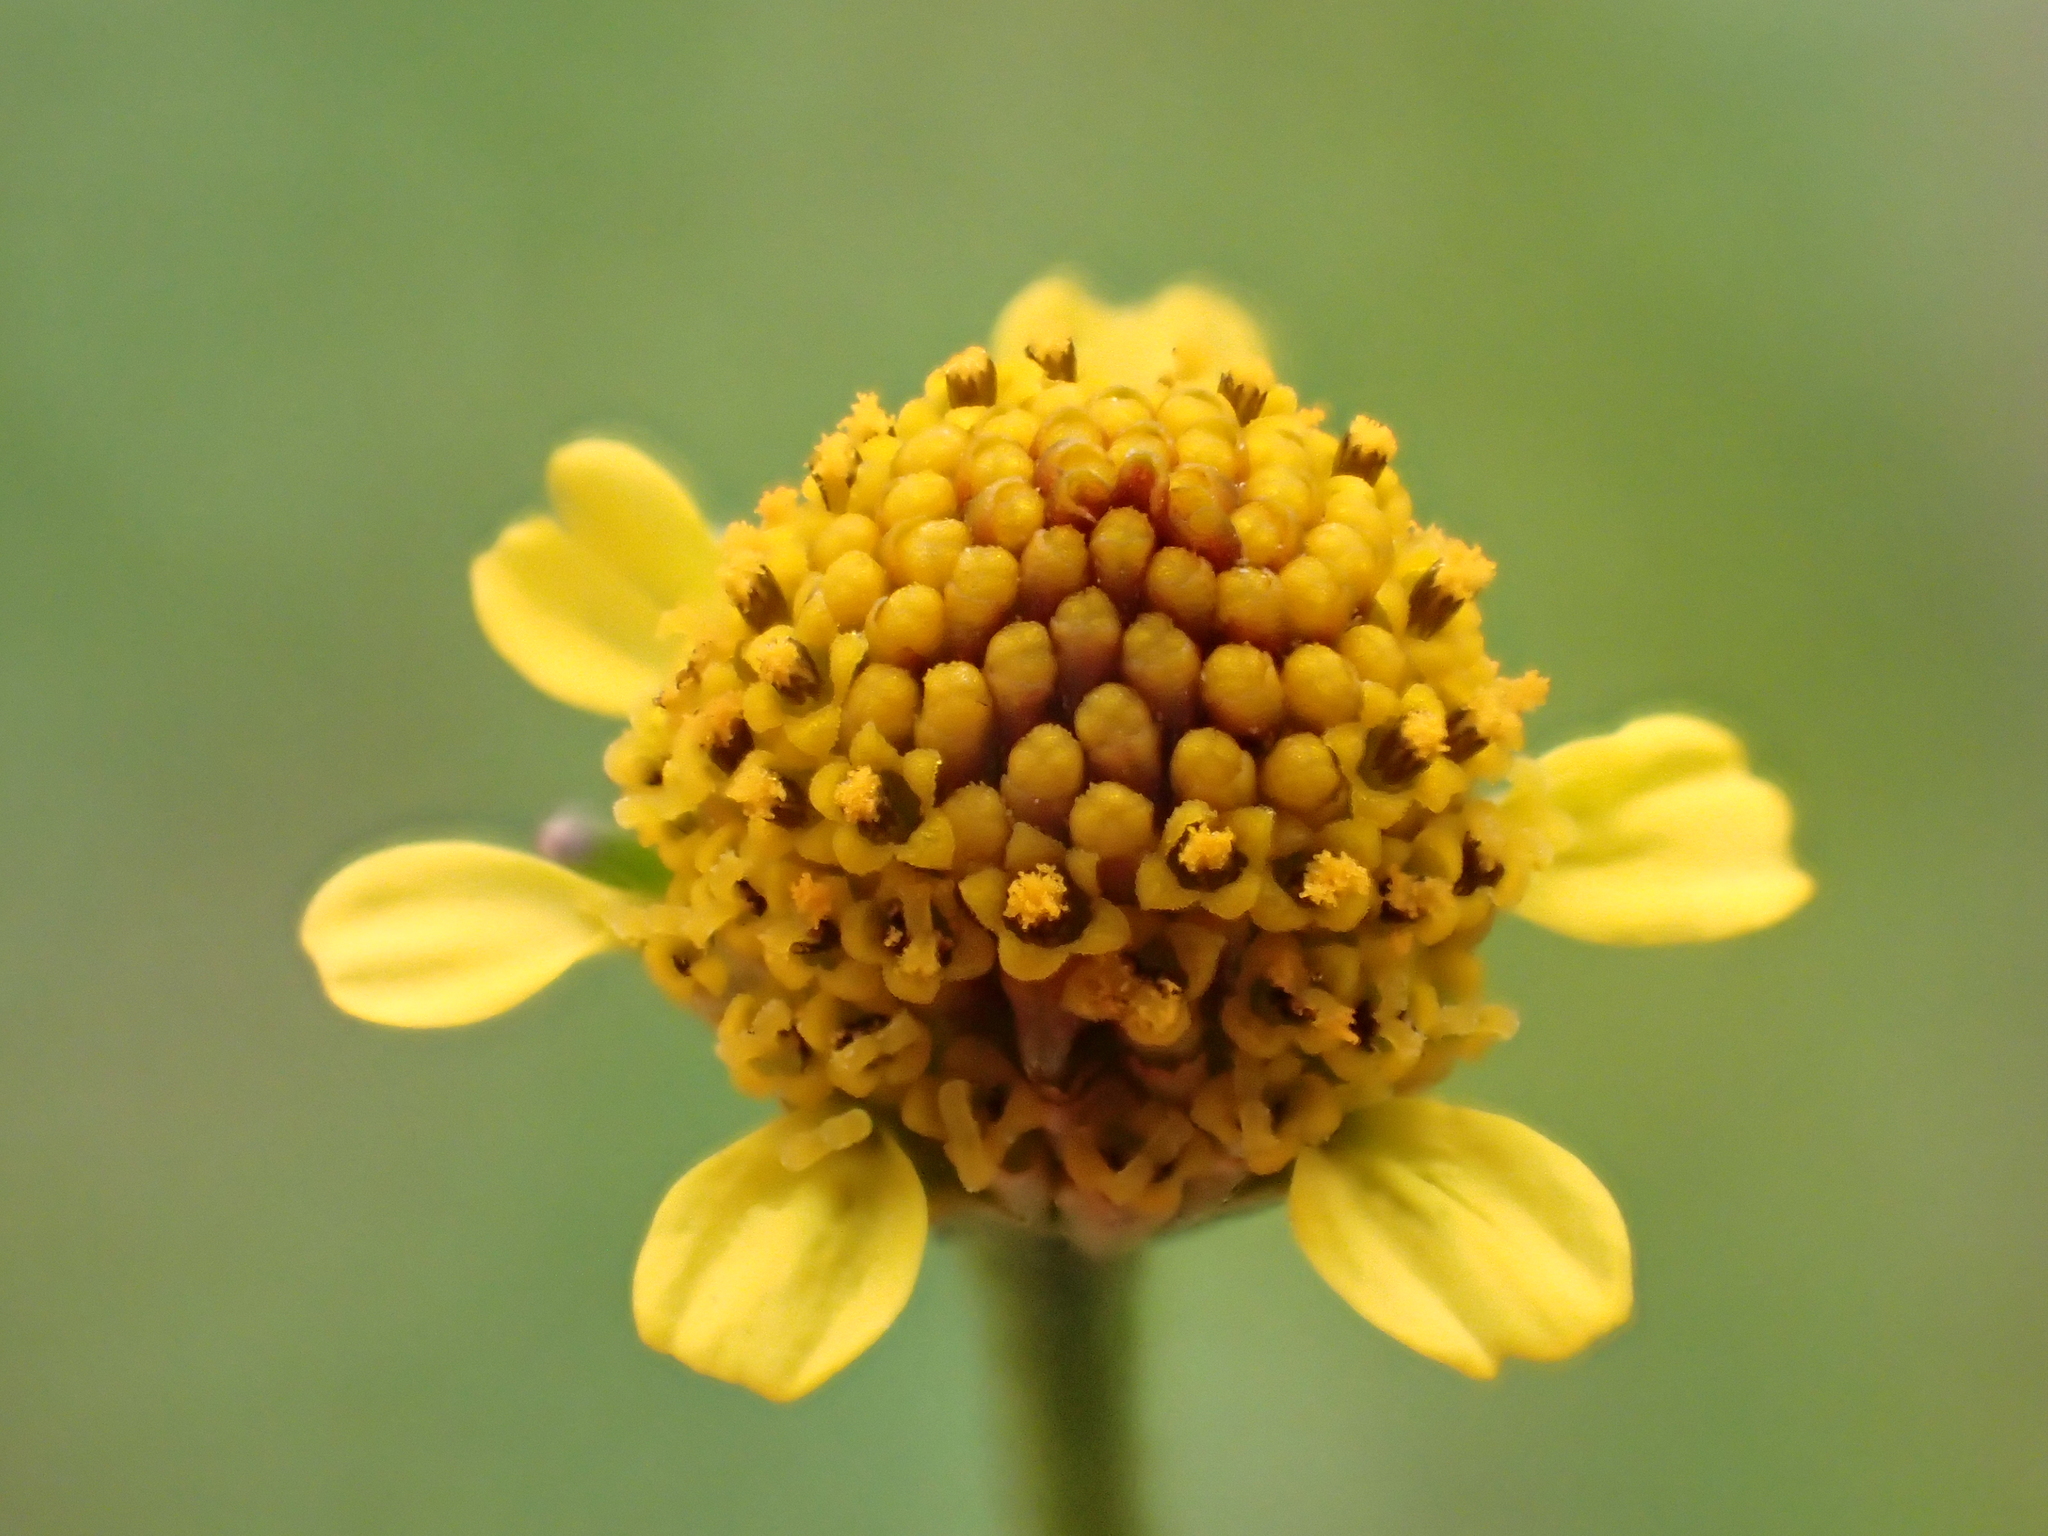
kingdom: Plantae
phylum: Tracheophyta
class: Magnoliopsida
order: Asterales
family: Asteraceae
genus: Acmella
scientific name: Acmella uliginosa
